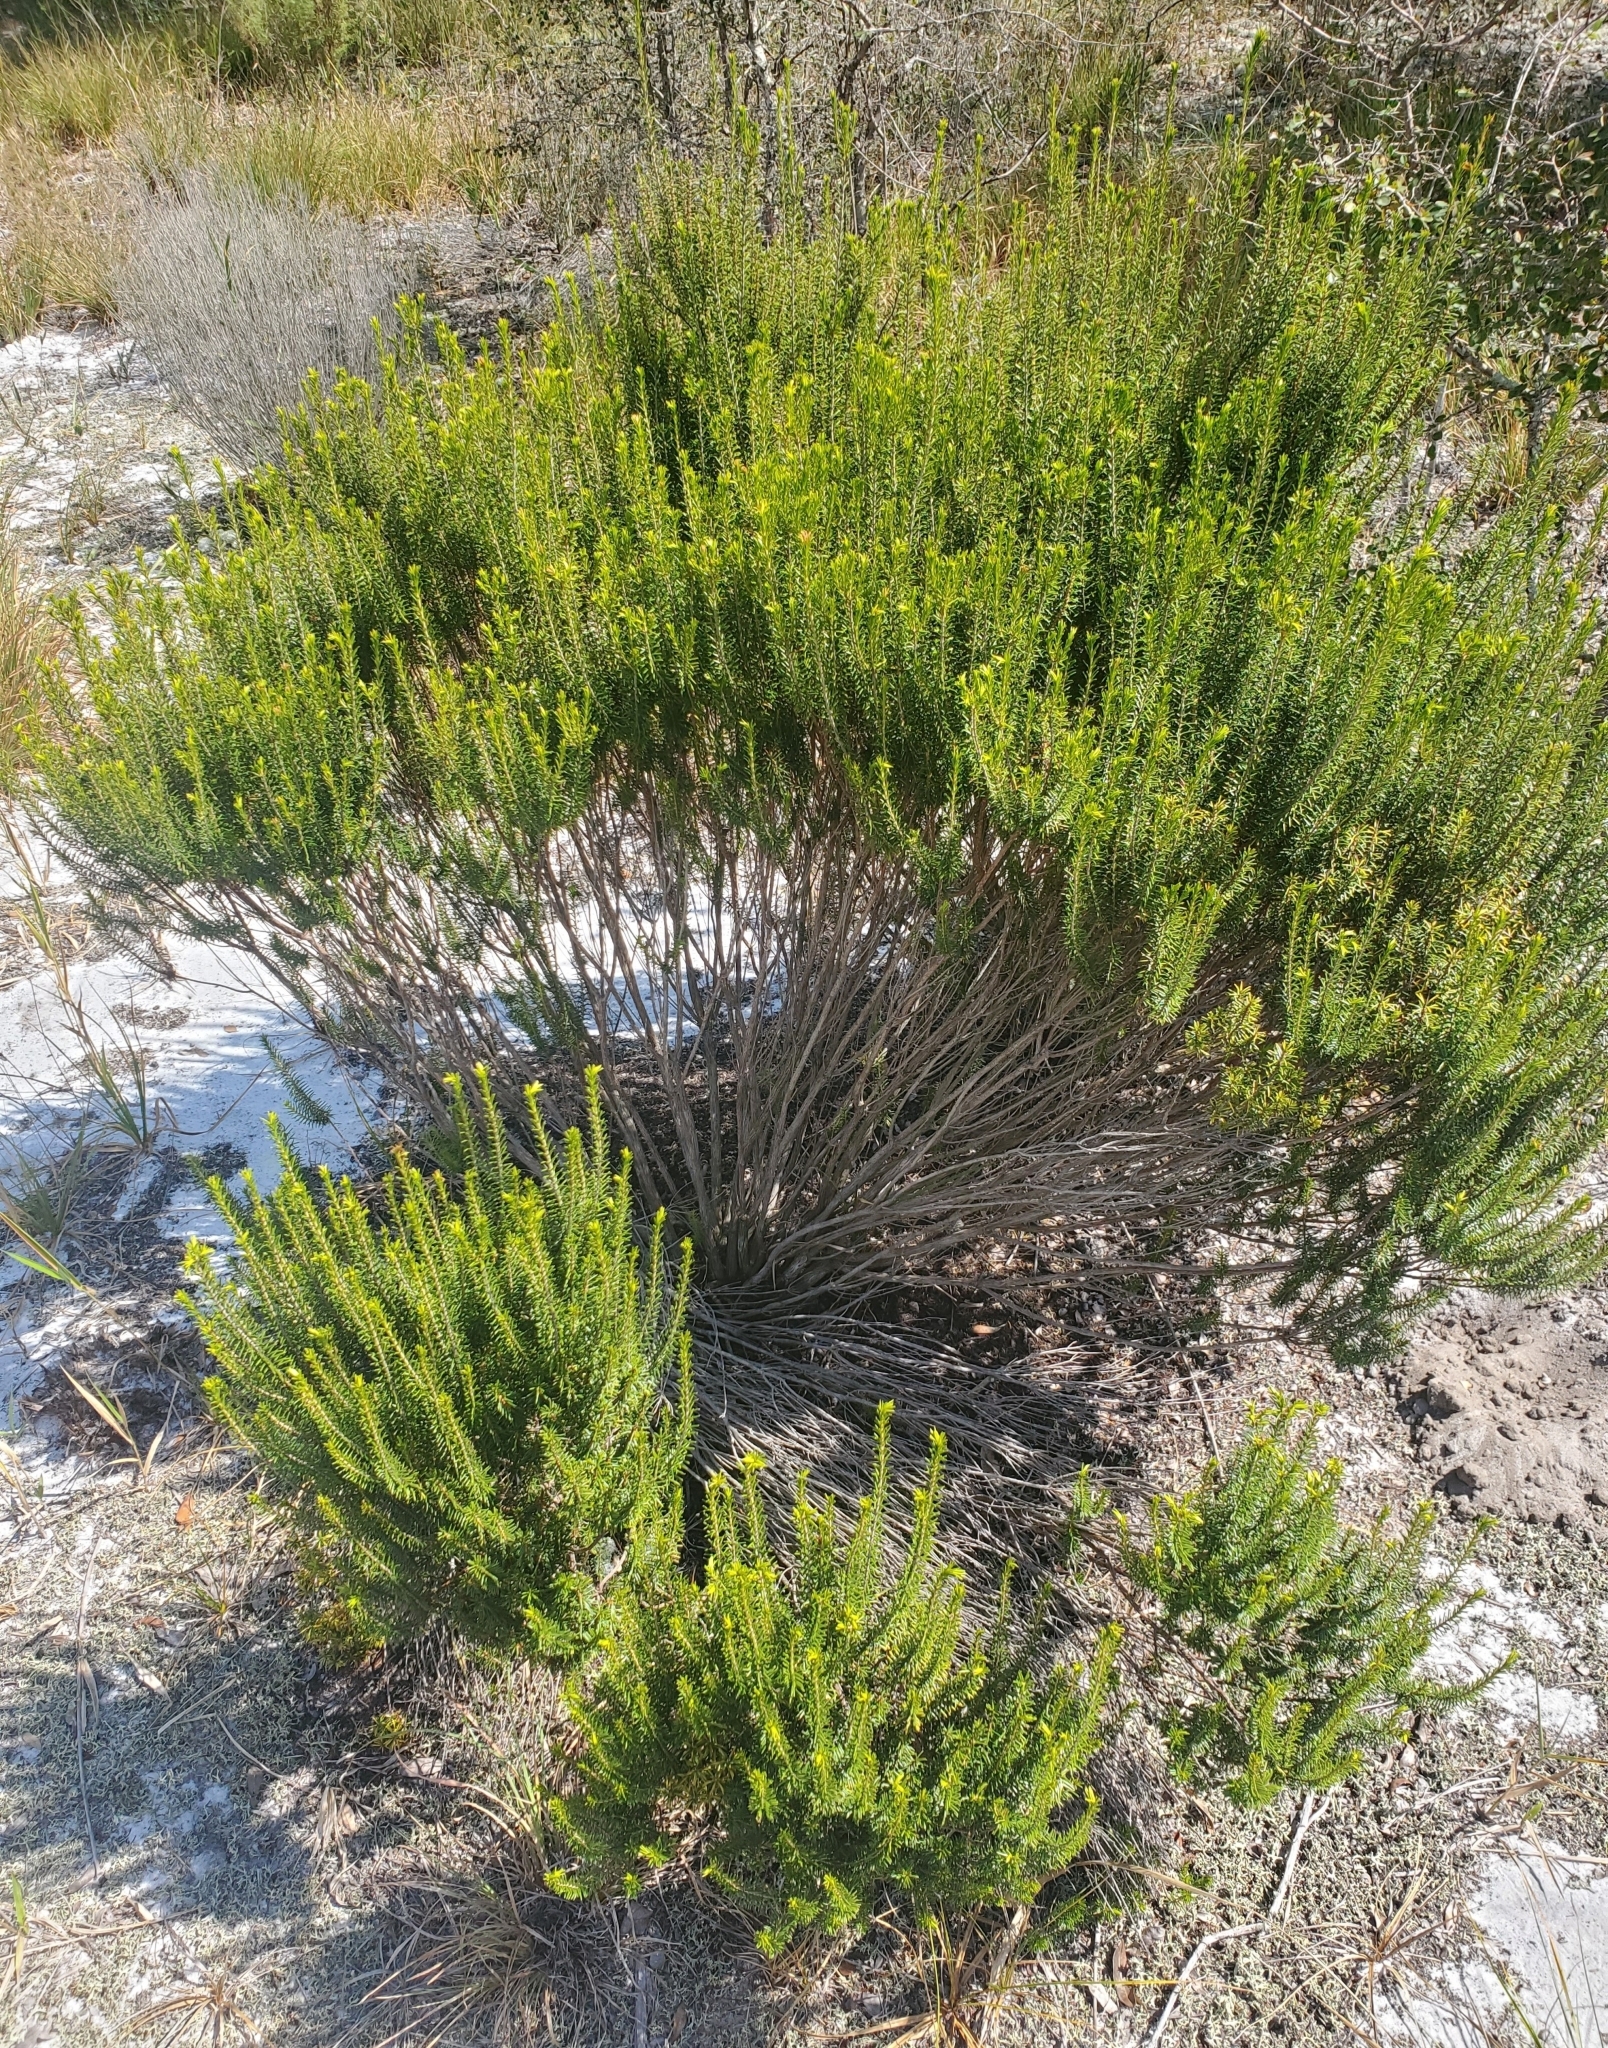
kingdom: Plantae
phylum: Tracheophyta
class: Magnoliopsida
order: Ericales
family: Ericaceae
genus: Ceratiola
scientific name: Ceratiola ericoides
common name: Sandhill-rosemary
